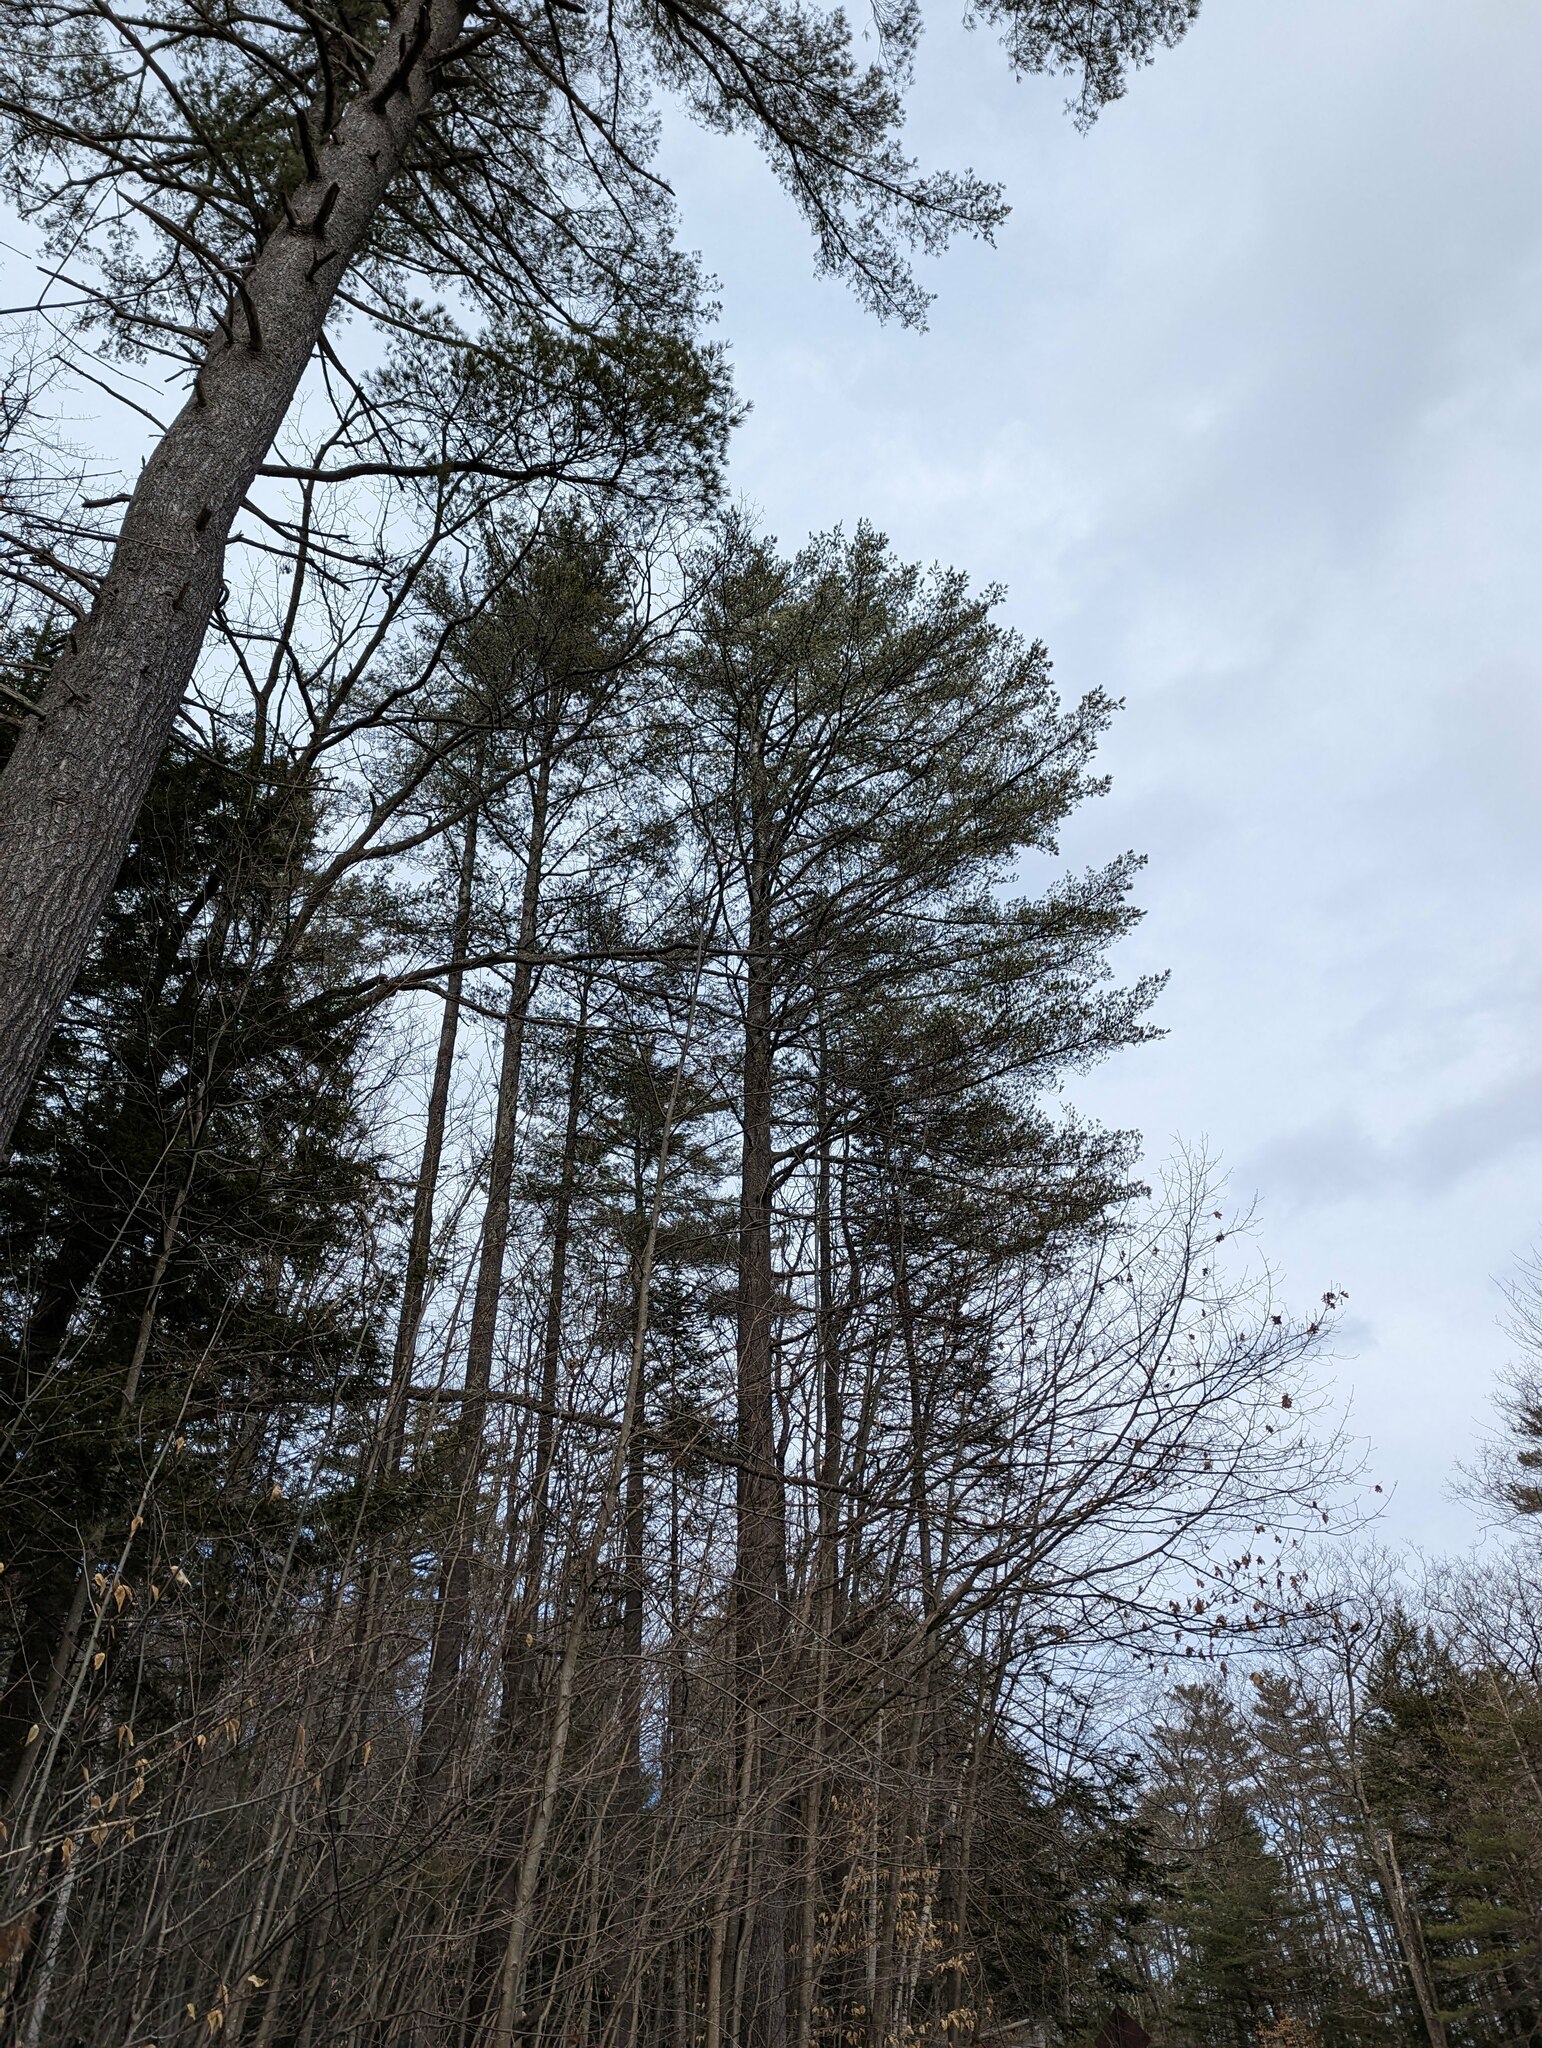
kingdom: Plantae
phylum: Tracheophyta
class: Pinopsida
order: Pinales
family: Pinaceae
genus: Pinus
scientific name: Pinus strobus
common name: Weymouth pine
